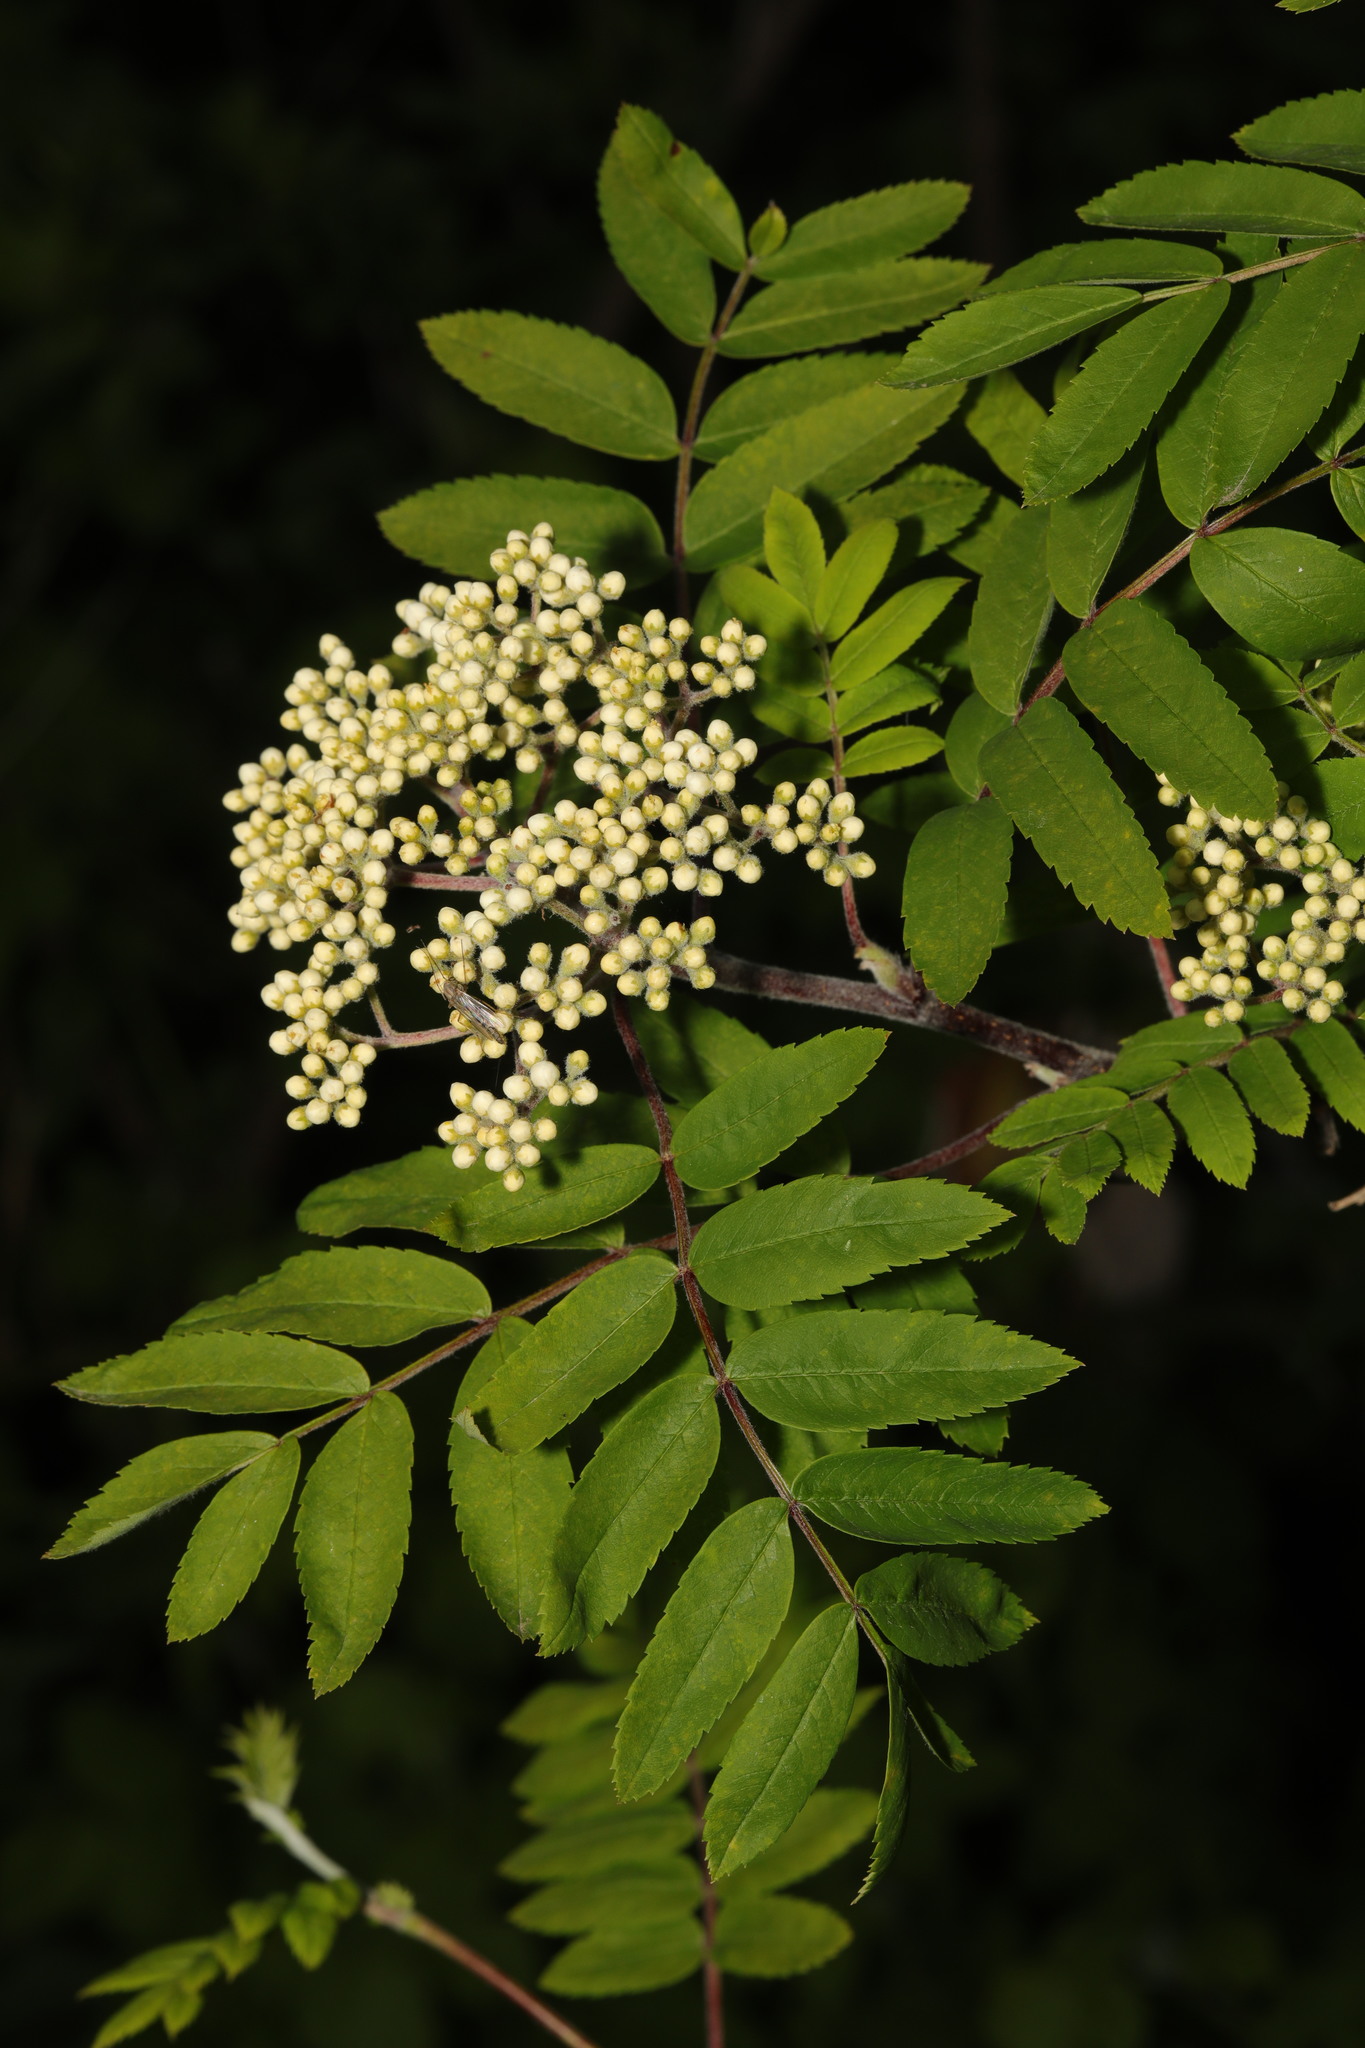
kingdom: Plantae
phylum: Tracheophyta
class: Magnoliopsida
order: Rosales
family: Rosaceae
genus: Sorbus
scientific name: Sorbus aucuparia
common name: Rowan
